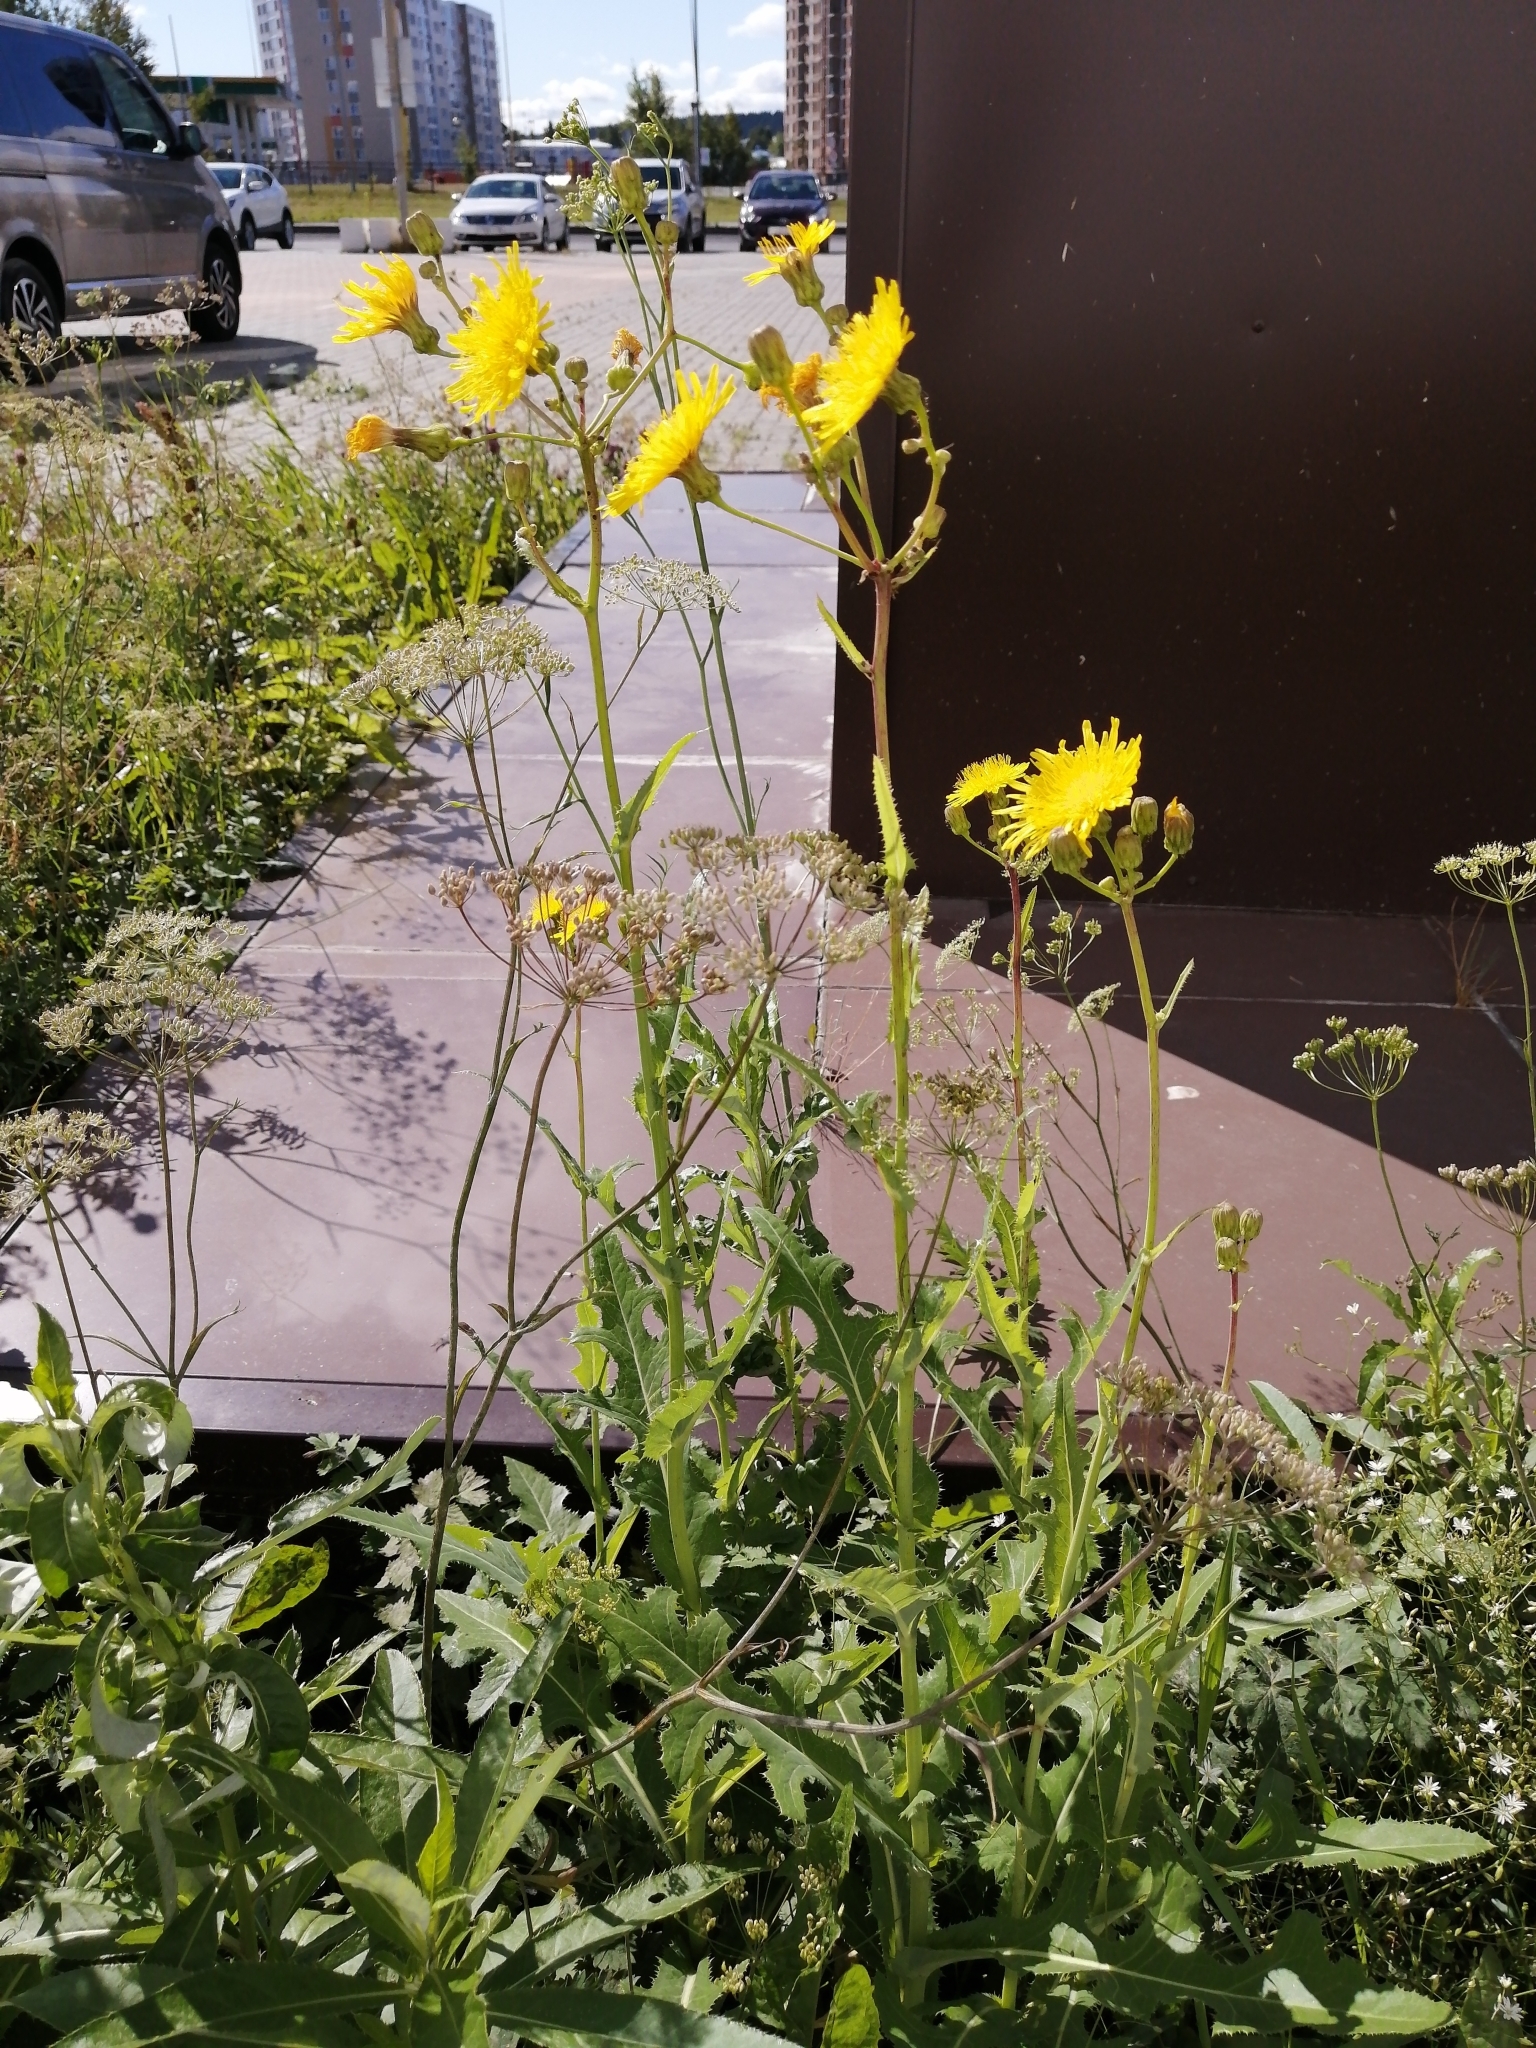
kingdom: Plantae
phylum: Tracheophyta
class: Magnoliopsida
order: Asterales
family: Asteraceae
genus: Sonchus
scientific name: Sonchus arvensis
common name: Perennial sow-thistle
